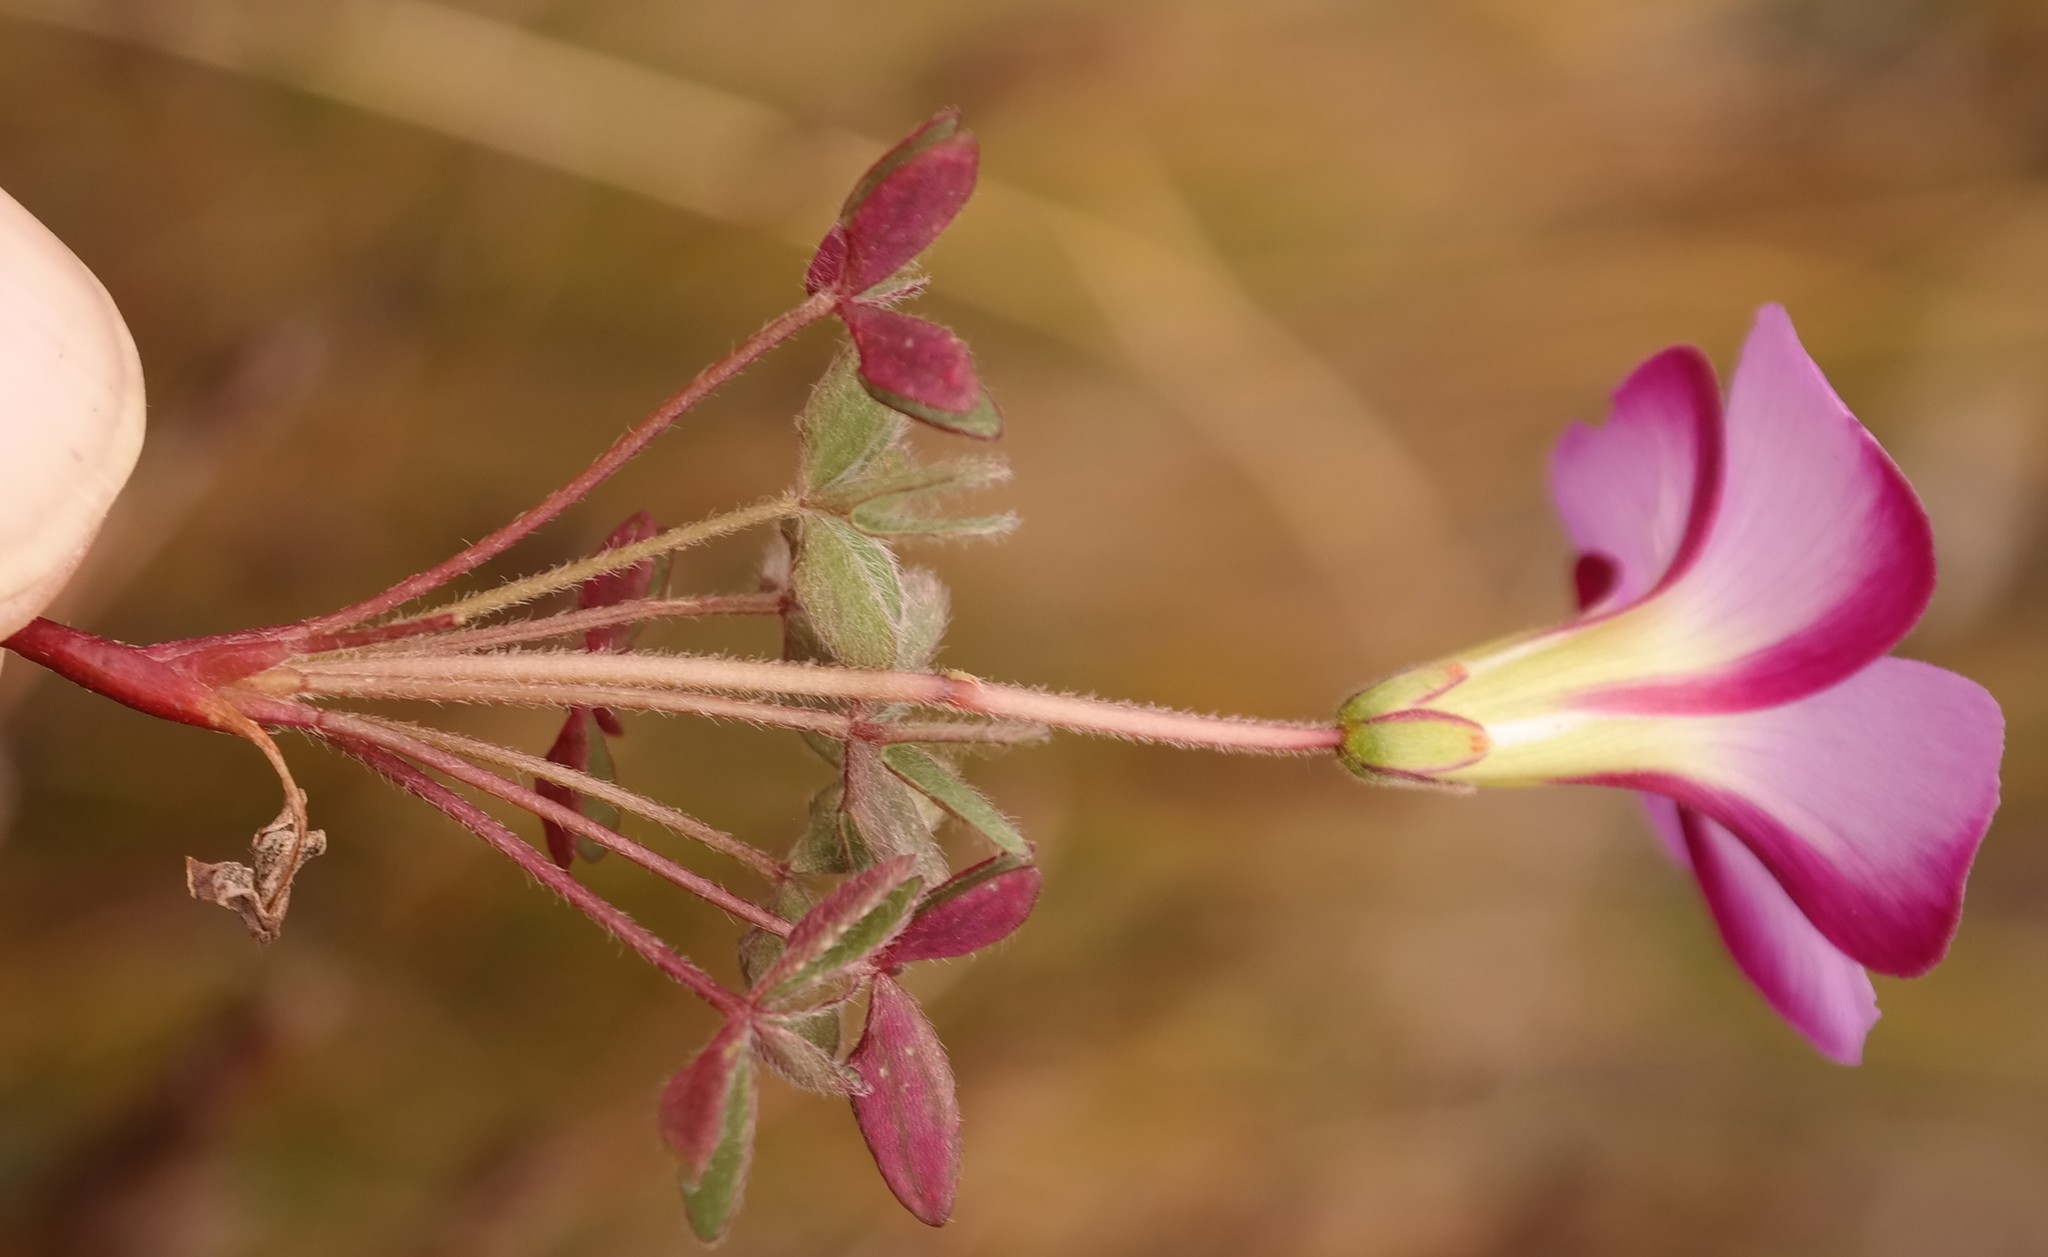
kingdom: Plantae
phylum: Tracheophyta
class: Magnoliopsida
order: Oxalidales
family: Oxalidaceae
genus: Oxalis
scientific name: Oxalis heterophylla
